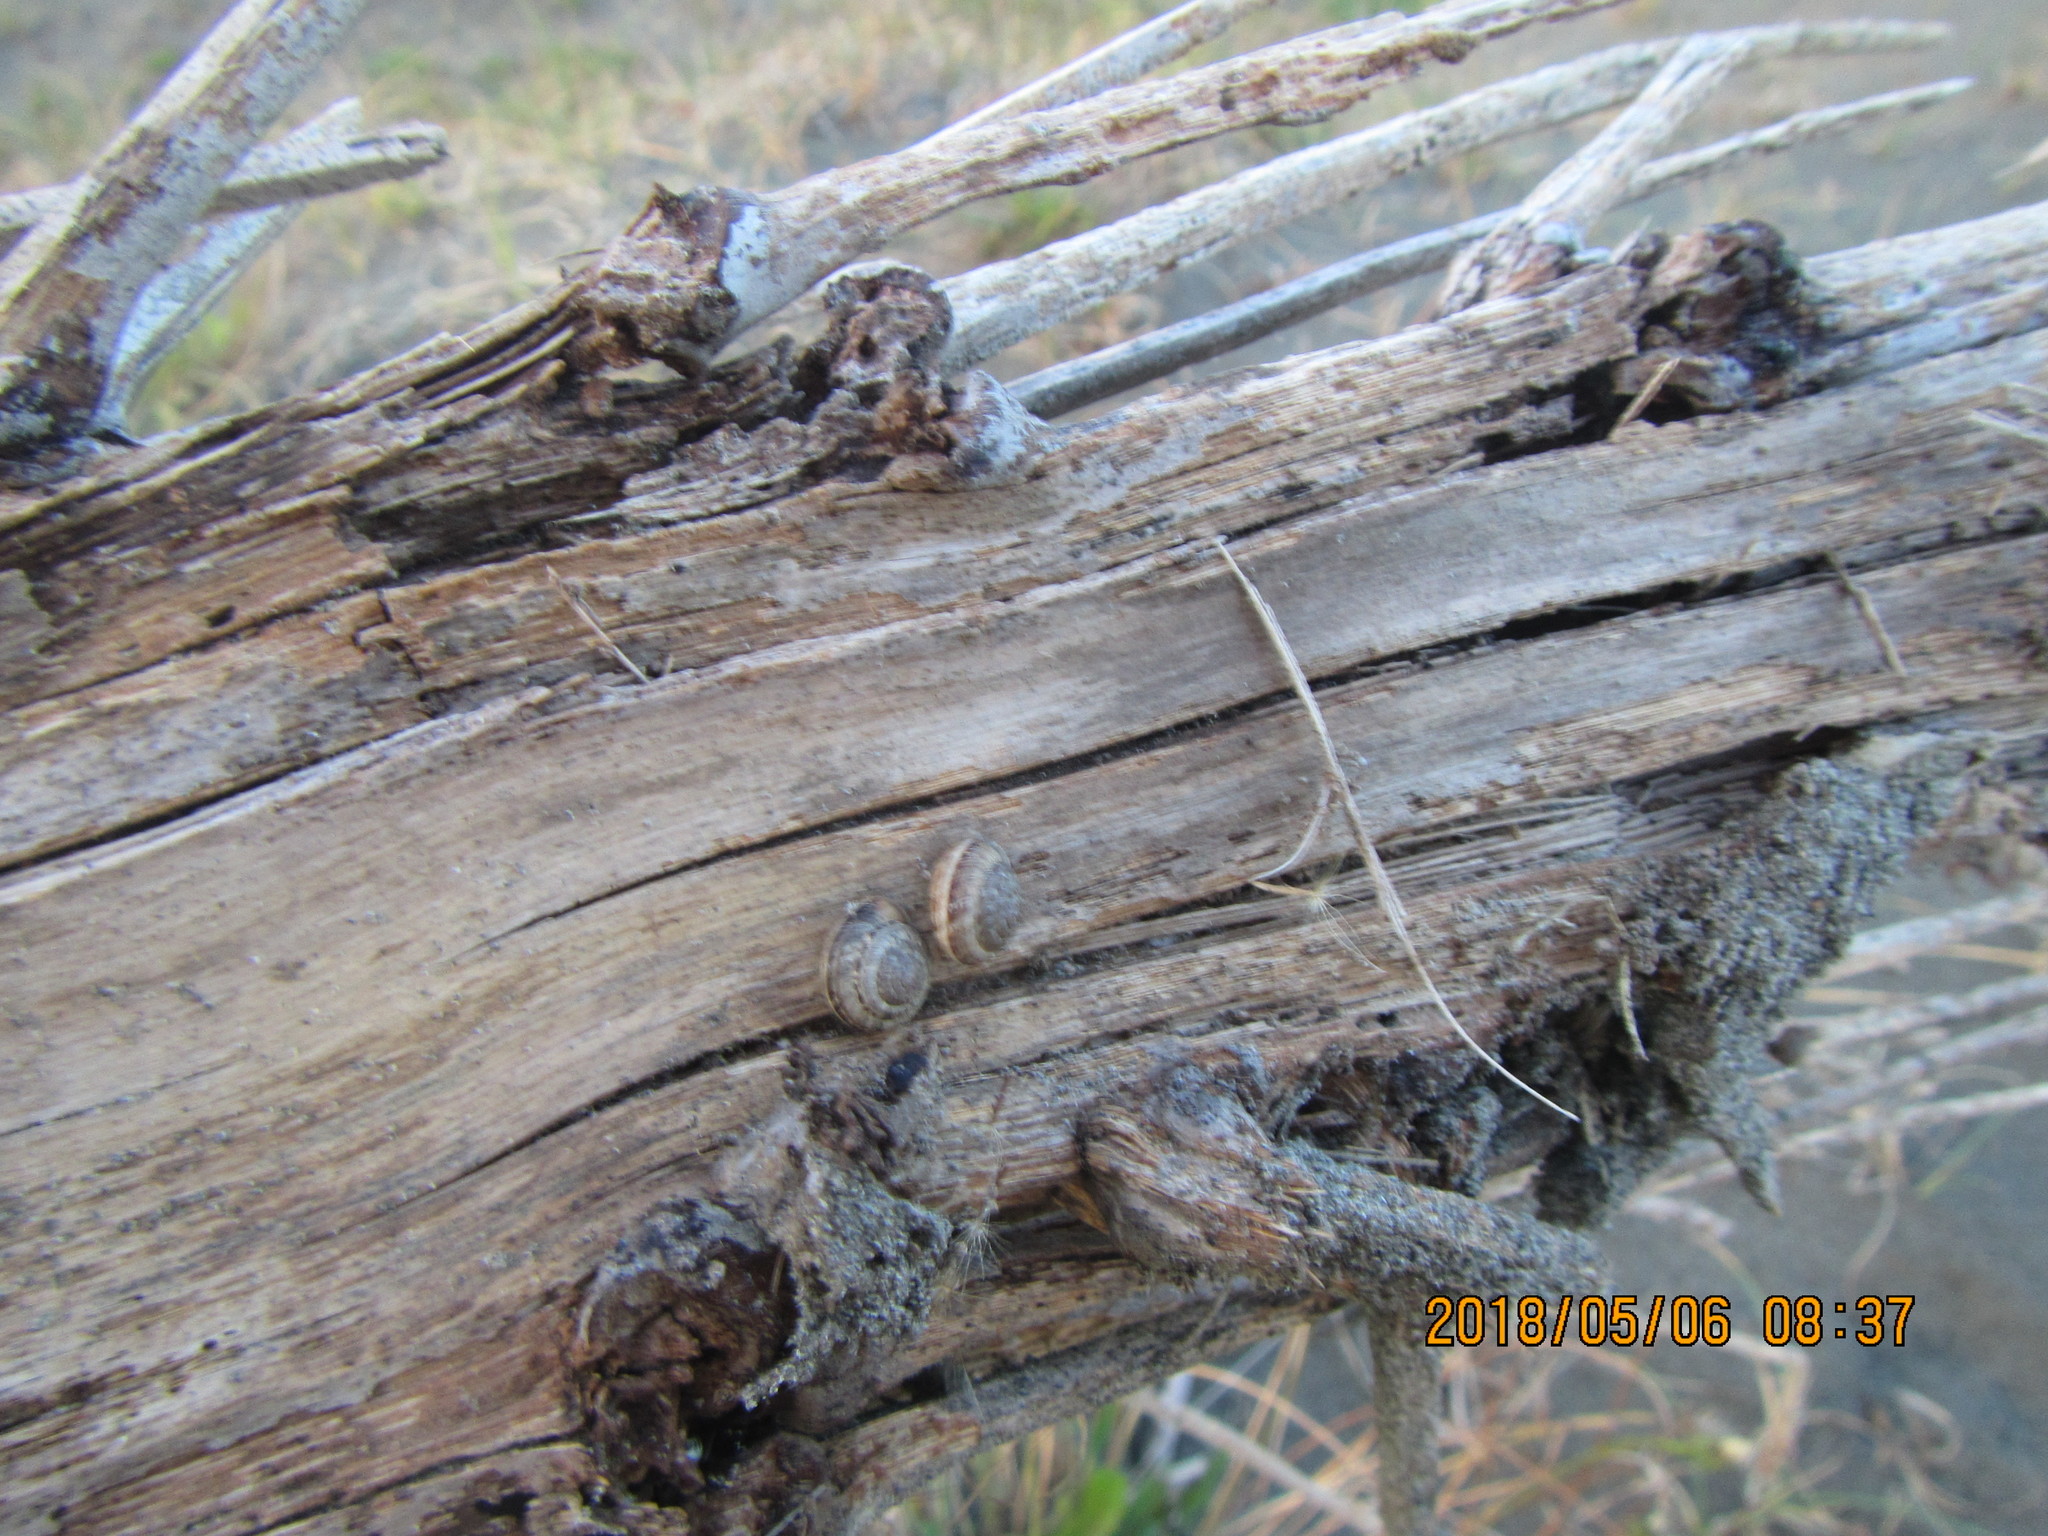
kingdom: Animalia
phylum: Mollusca
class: Gastropoda
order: Stylommatophora
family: Geomitridae
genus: Xeroplexa
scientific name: Xeroplexa intersecta
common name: Wrinkled snail
